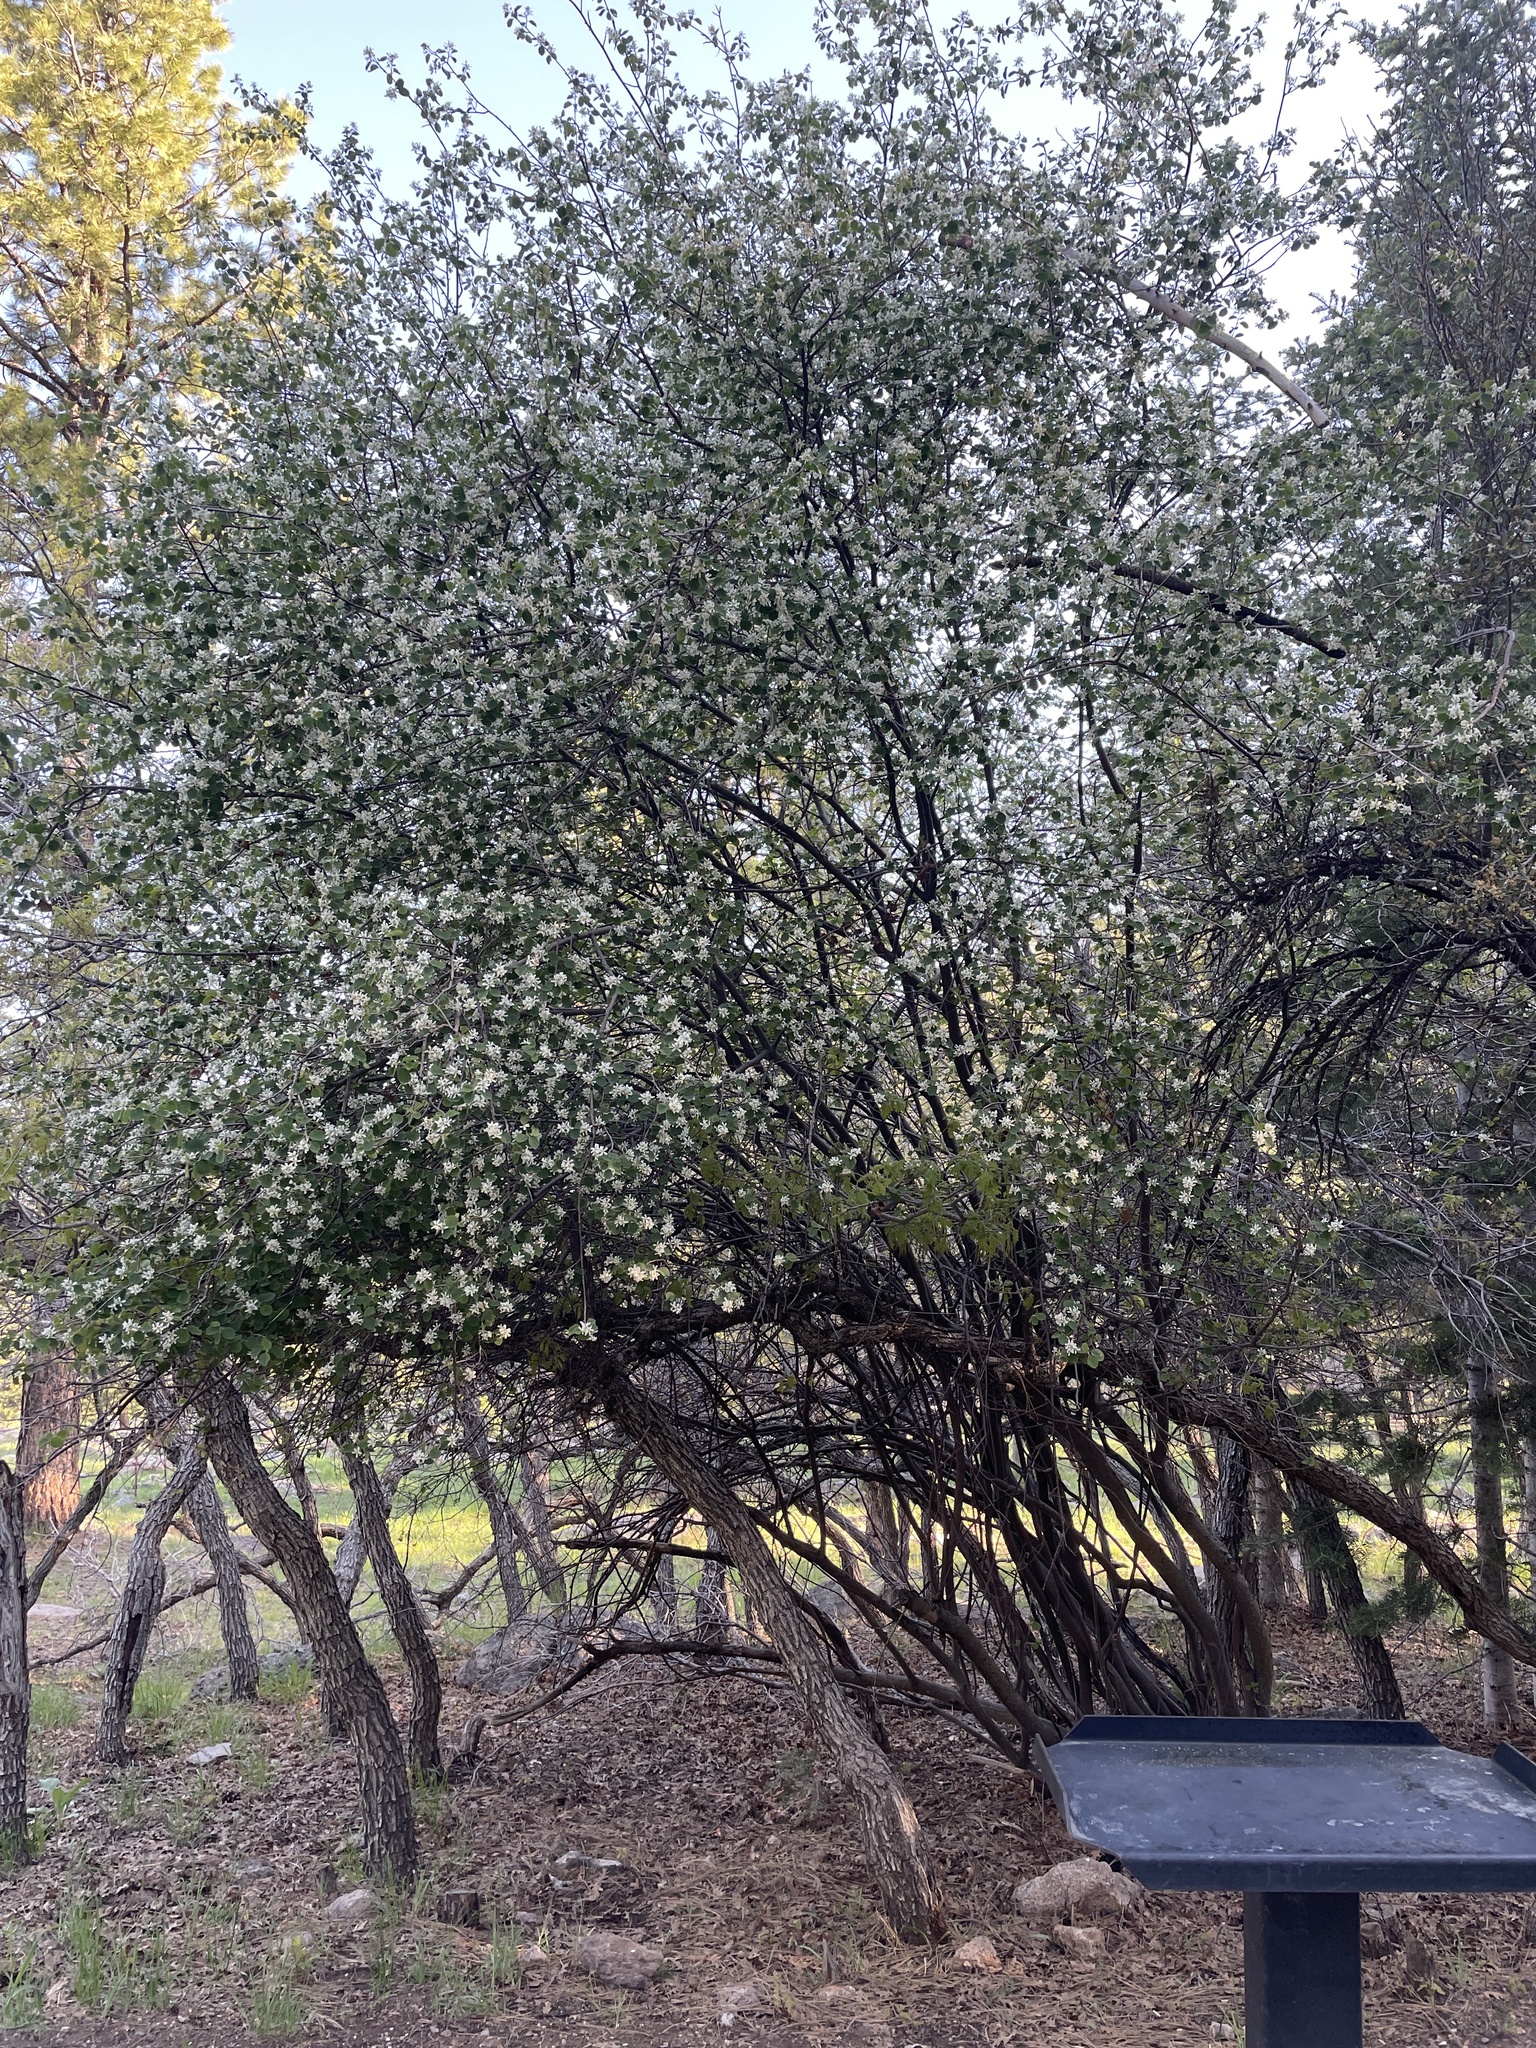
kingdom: Plantae
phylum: Tracheophyta
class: Magnoliopsida
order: Rosales
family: Rosaceae
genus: Amelanchier
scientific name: Amelanchier utahensis
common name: Utah serviceberry
